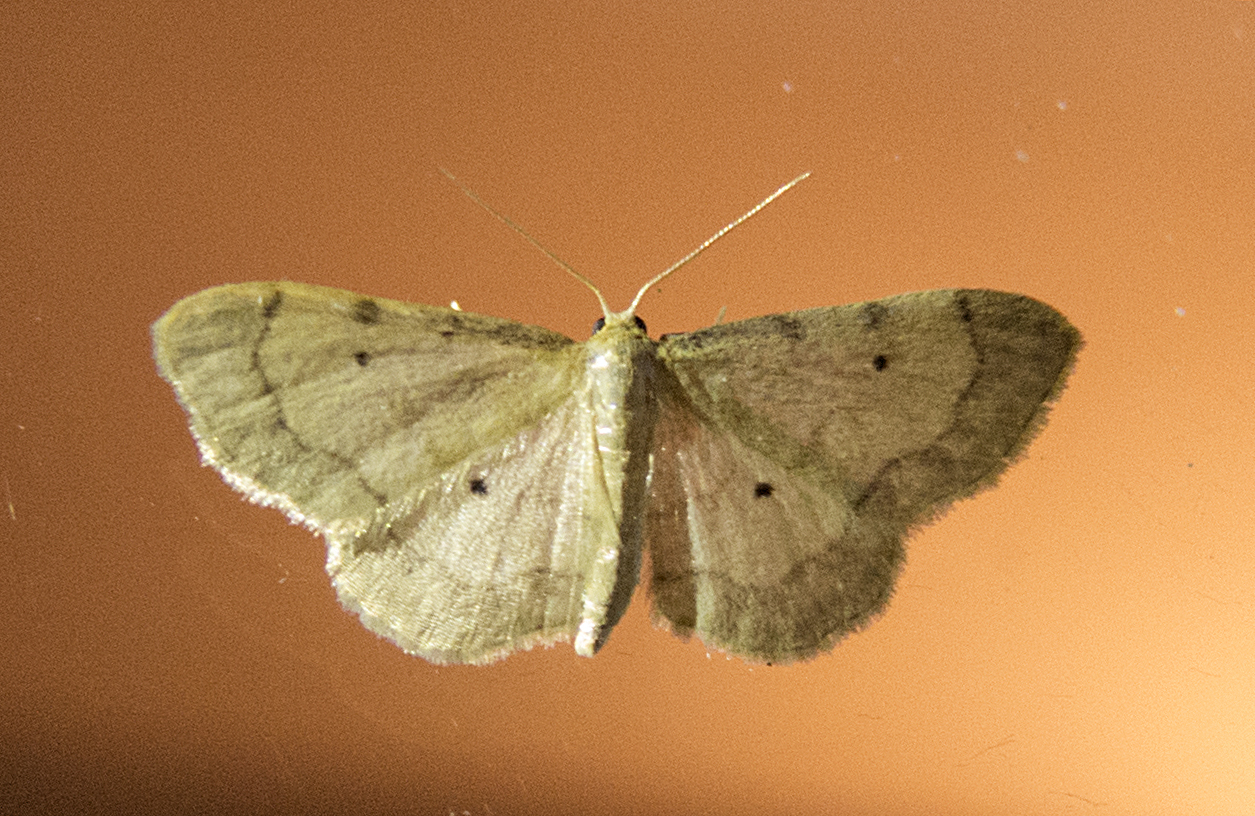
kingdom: Animalia
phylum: Arthropoda
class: Insecta
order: Lepidoptera
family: Geometridae
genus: Idaea
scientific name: Idaea politaria
